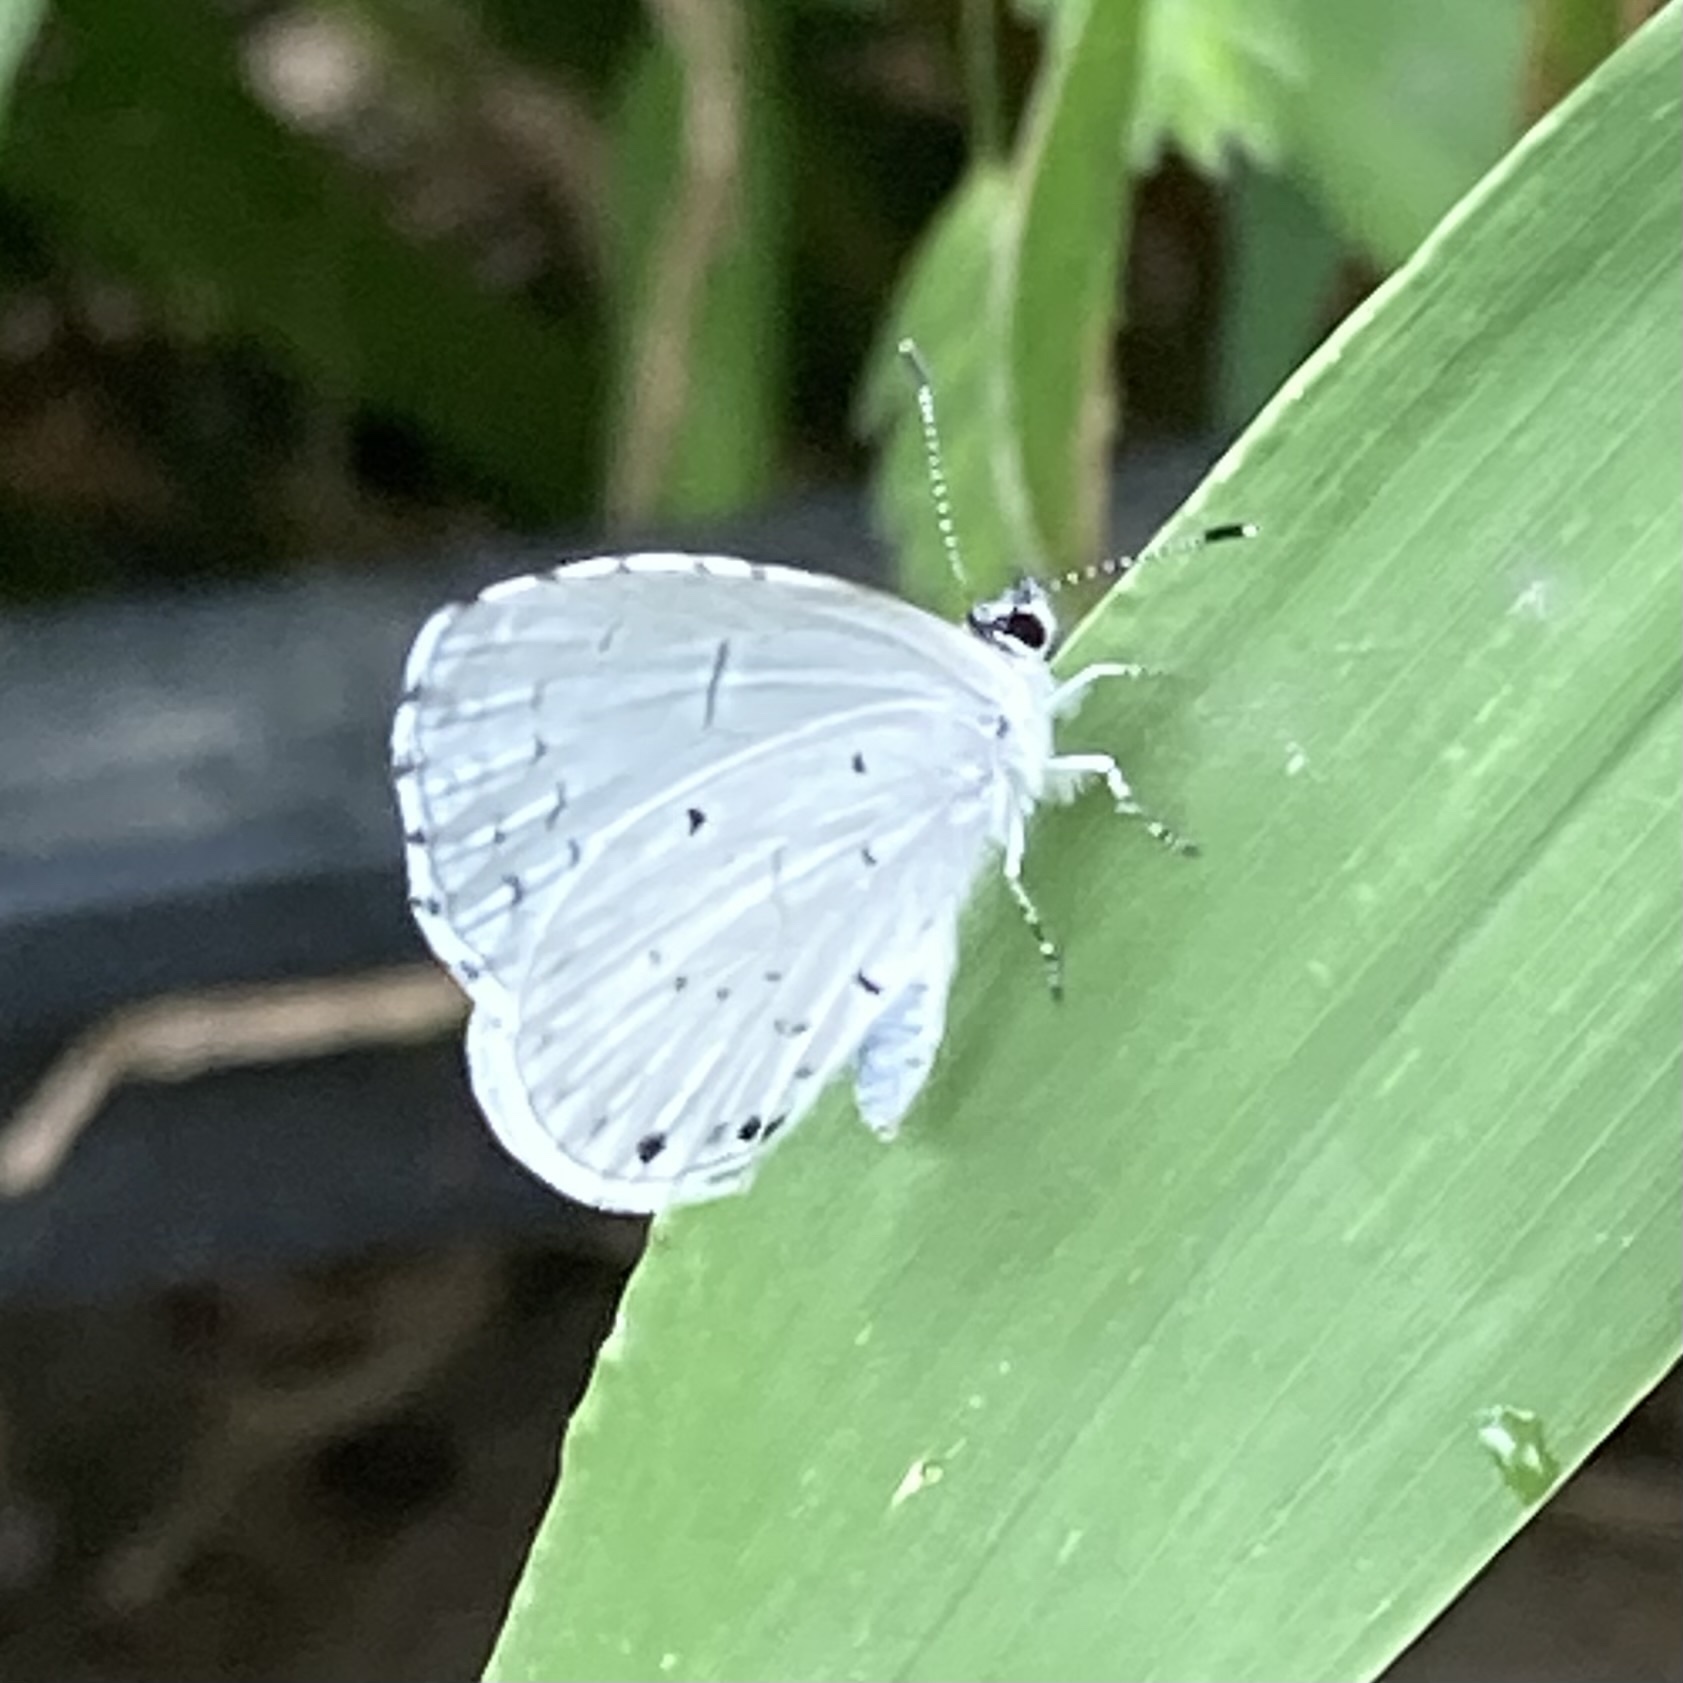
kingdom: Animalia
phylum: Arthropoda
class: Insecta
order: Lepidoptera
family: Lycaenidae
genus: Cyaniris
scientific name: Cyaniris neglecta
